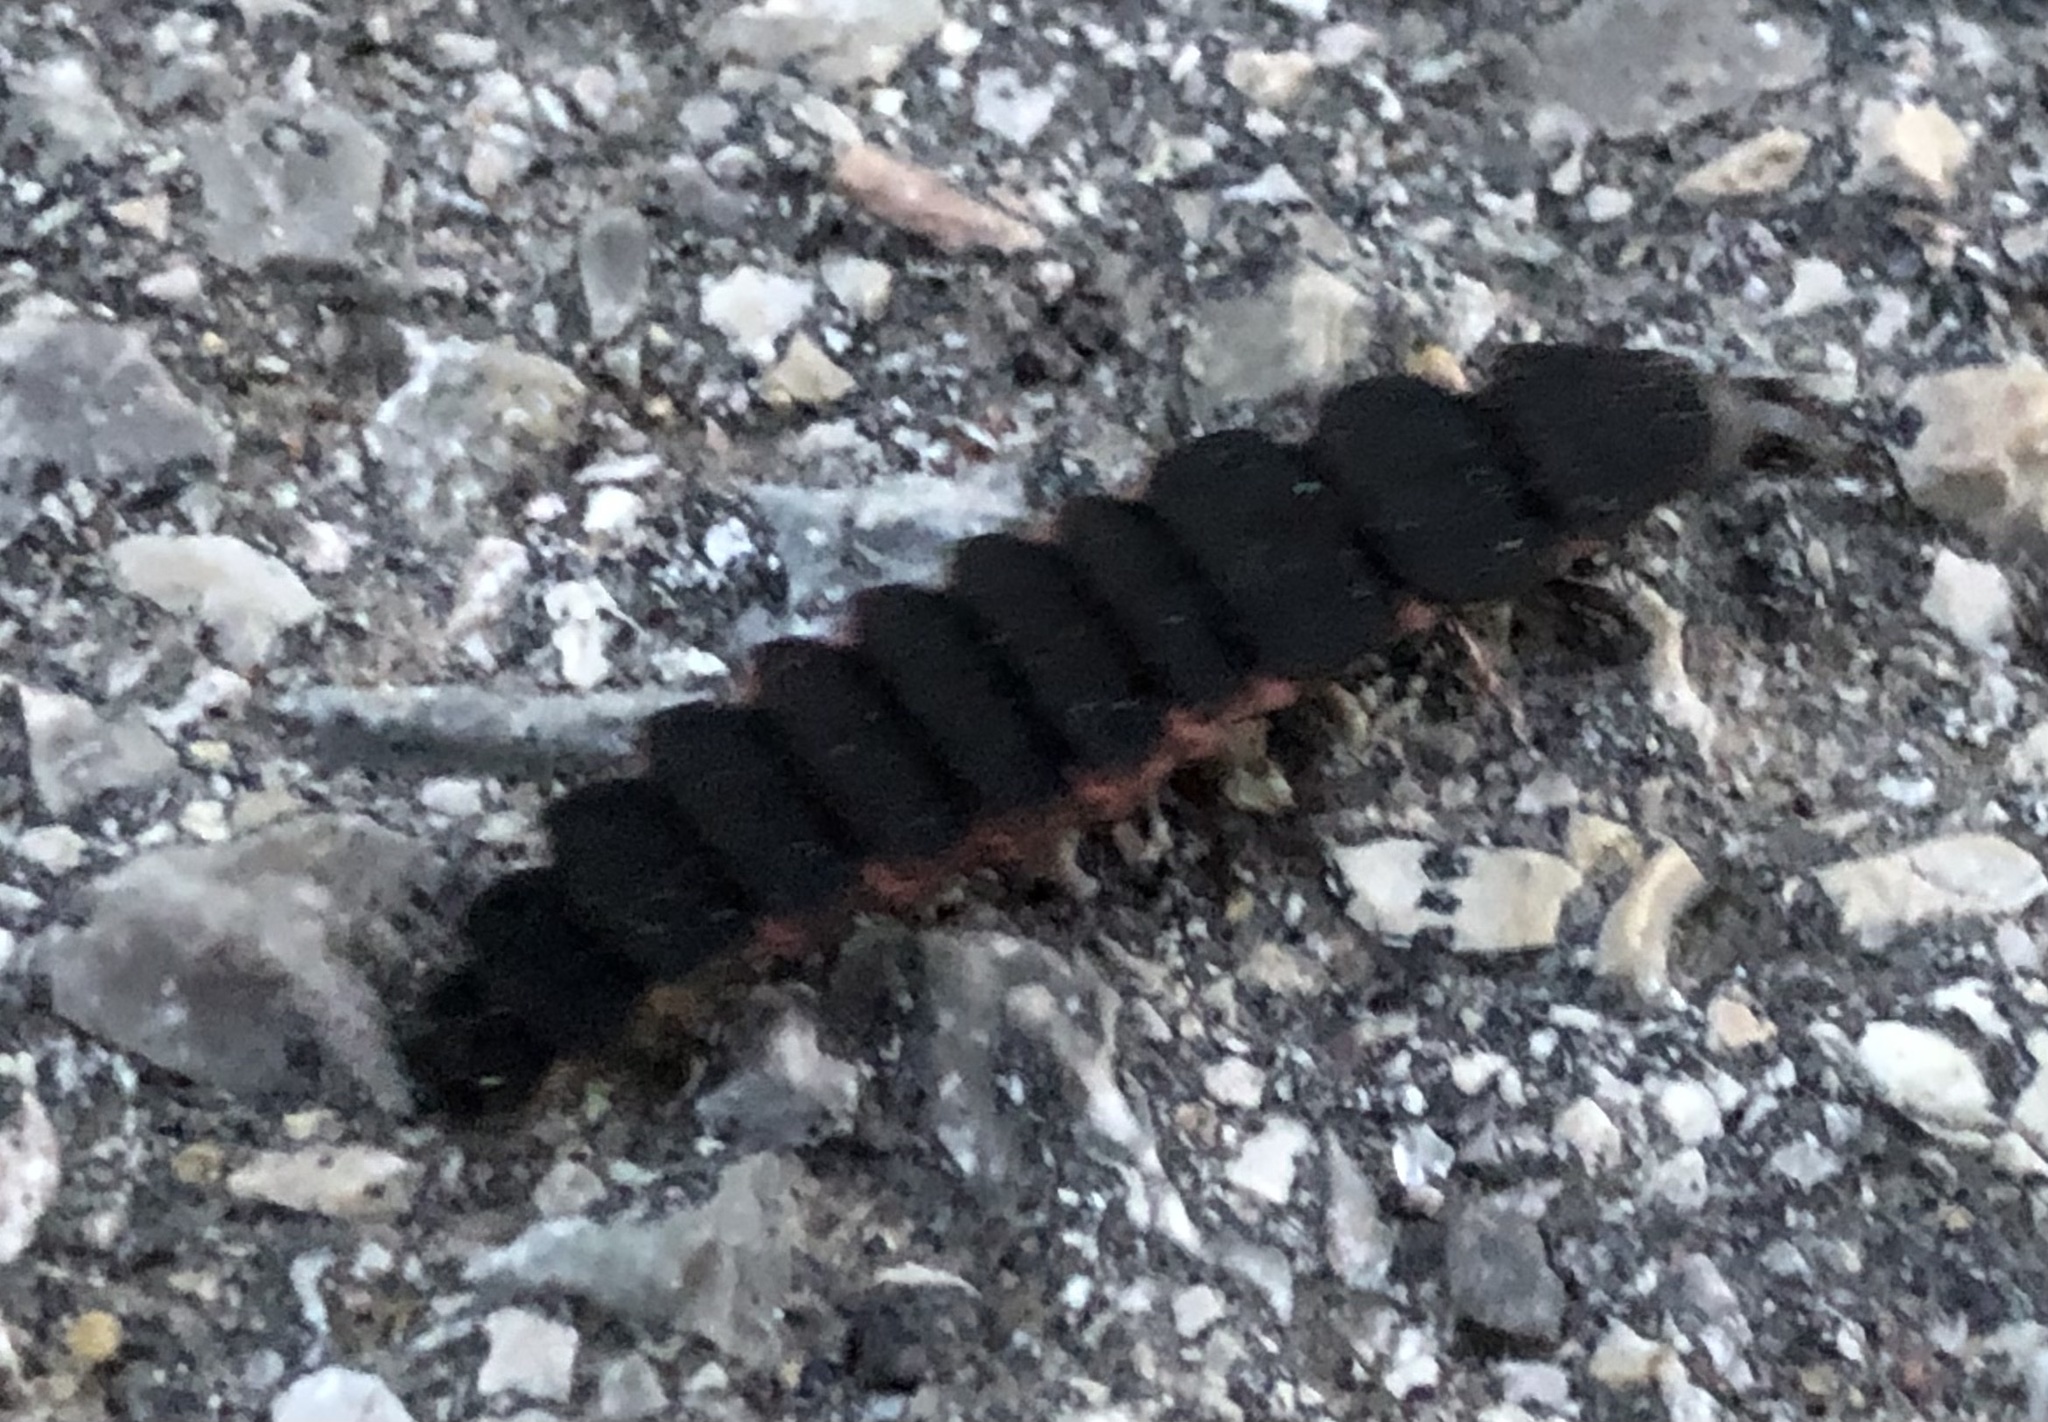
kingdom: Animalia
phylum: Arthropoda
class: Insecta
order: Coleoptera
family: Lampyridae
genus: Nyctophila
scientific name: Nyctophila reichii
